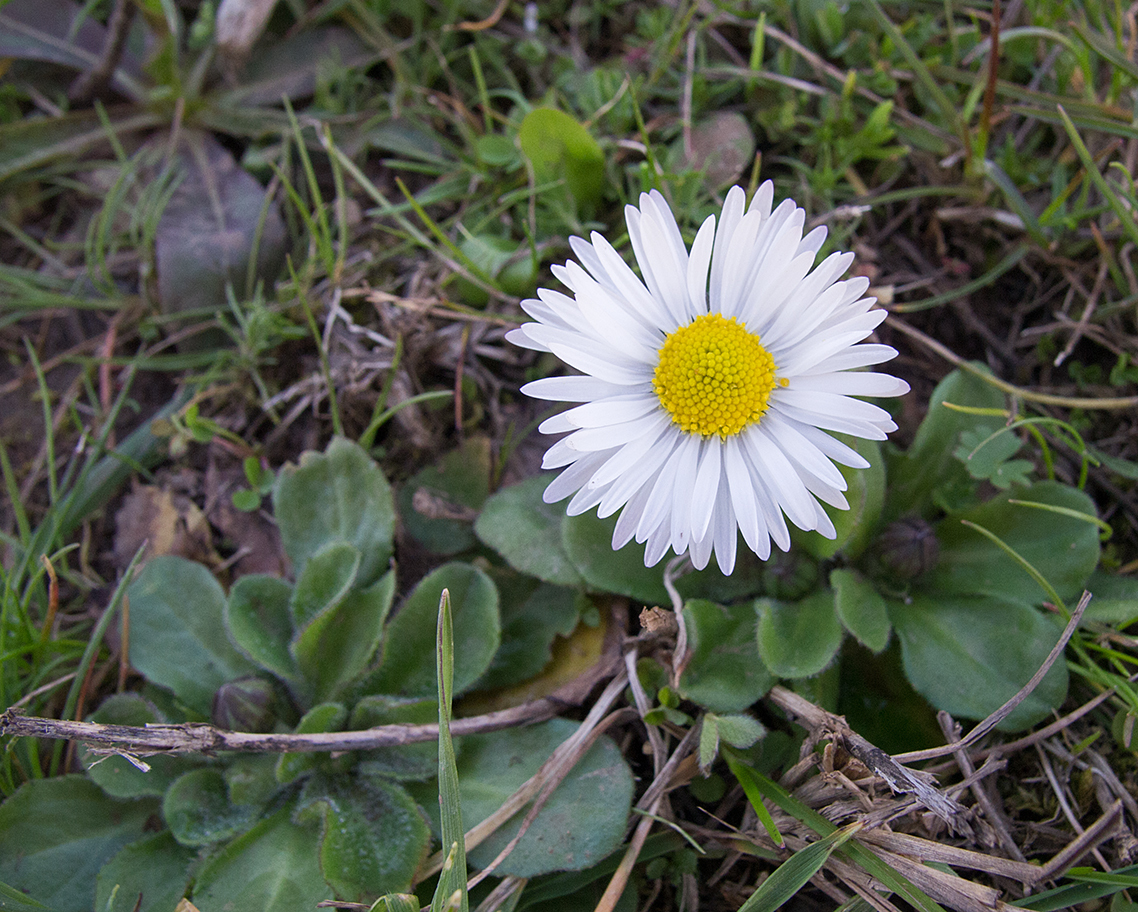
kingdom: Plantae
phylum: Tracheophyta
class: Magnoliopsida
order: Asterales
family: Asteraceae
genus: Bellis
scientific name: Bellis sylvestris
